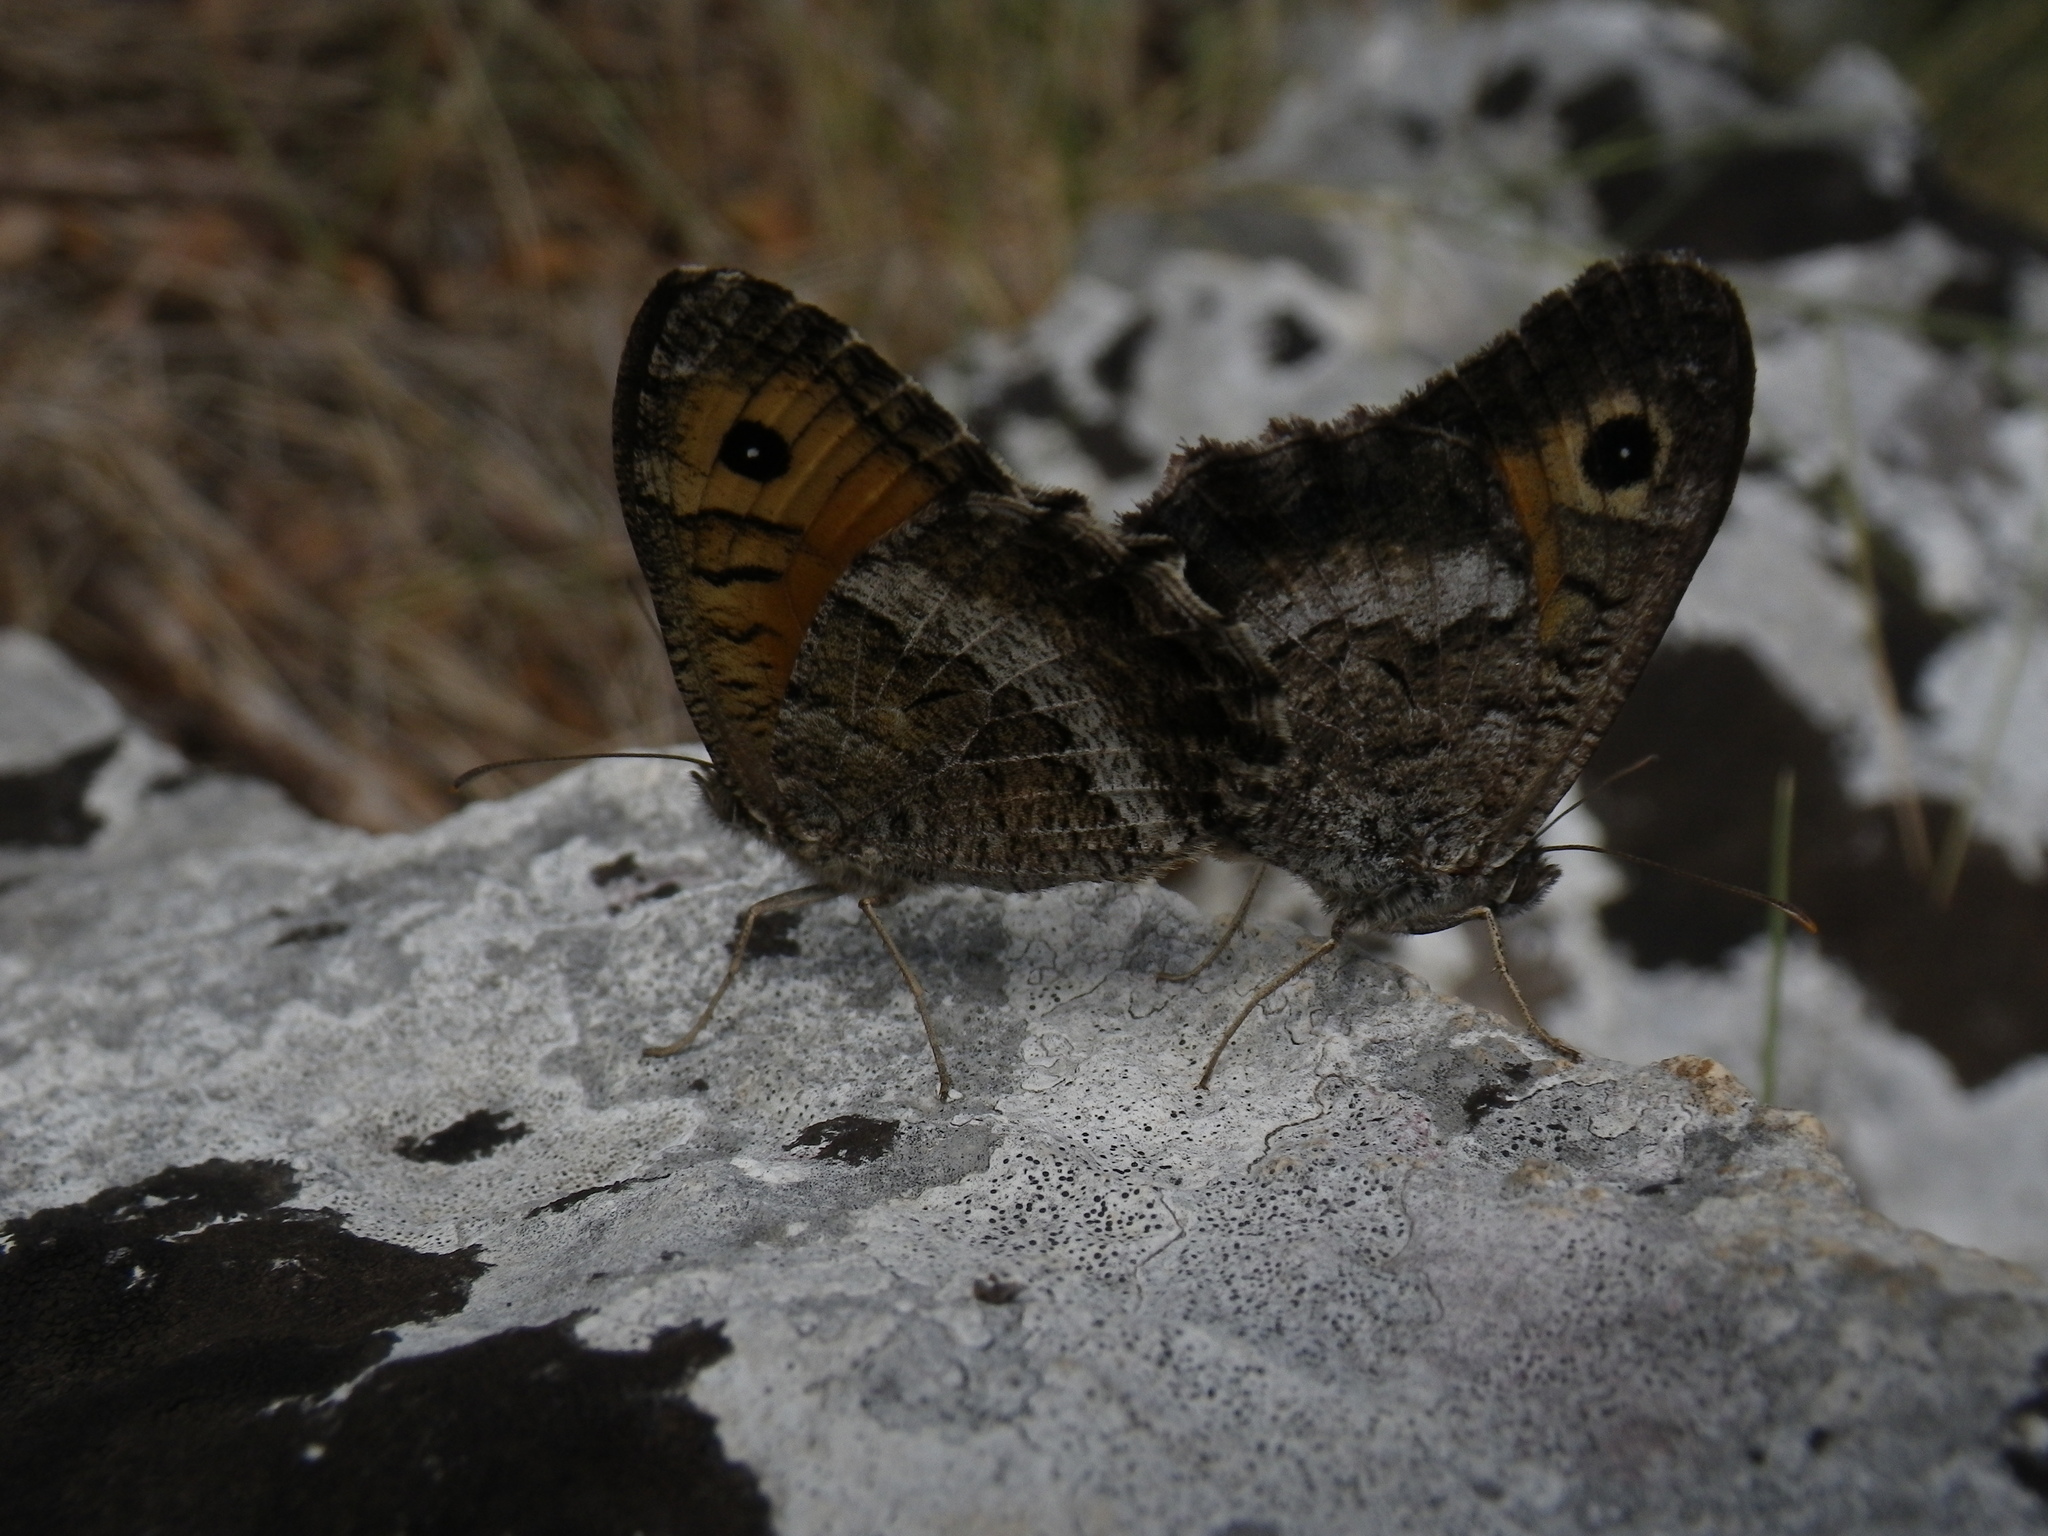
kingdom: Animalia
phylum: Arthropoda
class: Insecta
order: Lepidoptera
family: Nymphalidae
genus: Arethusana
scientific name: Arethusana arethusa
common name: False grayling
